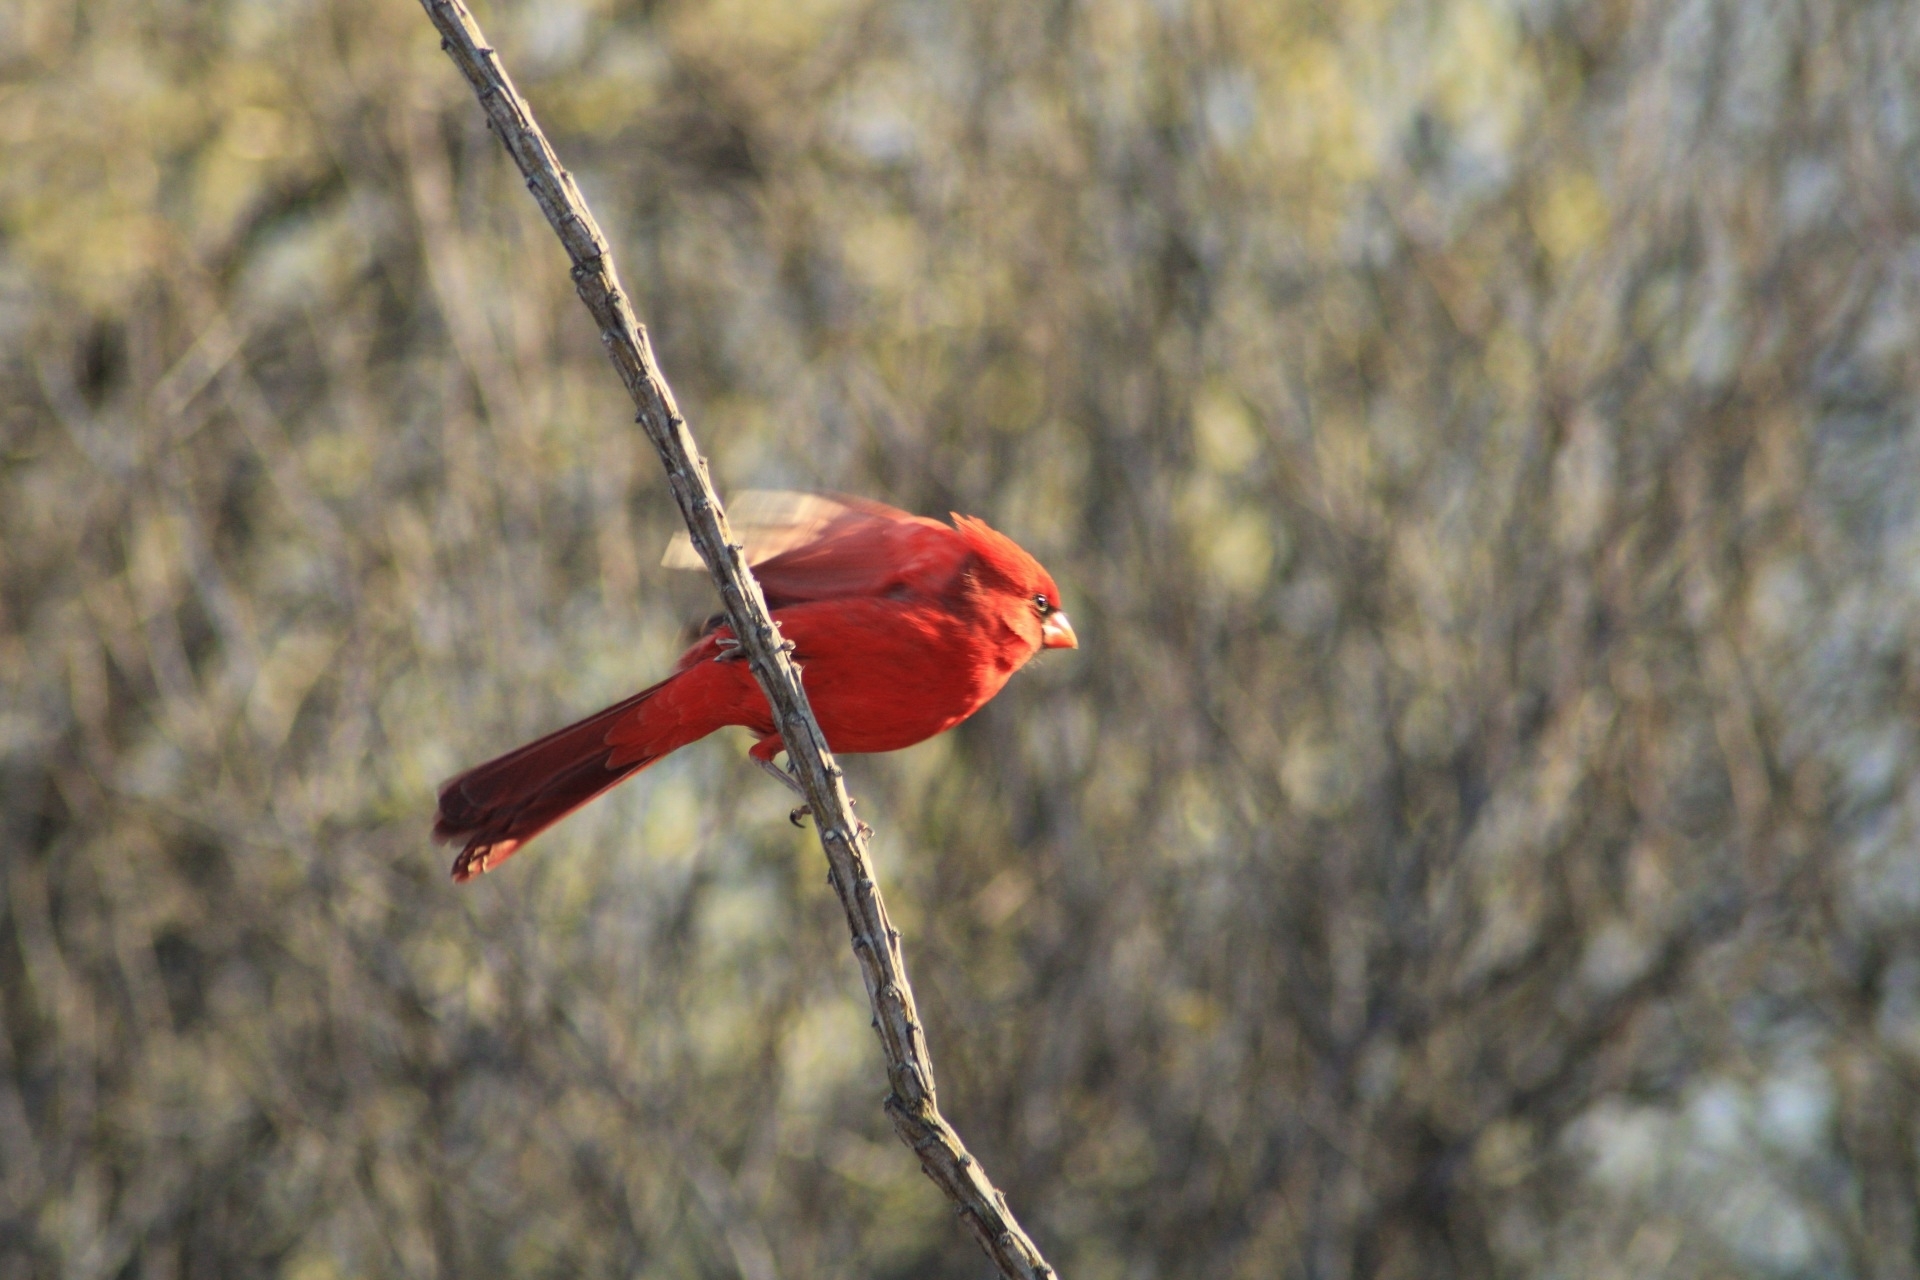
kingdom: Animalia
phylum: Chordata
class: Aves
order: Passeriformes
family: Cardinalidae
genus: Cardinalis
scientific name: Cardinalis cardinalis
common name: Northern cardinal
